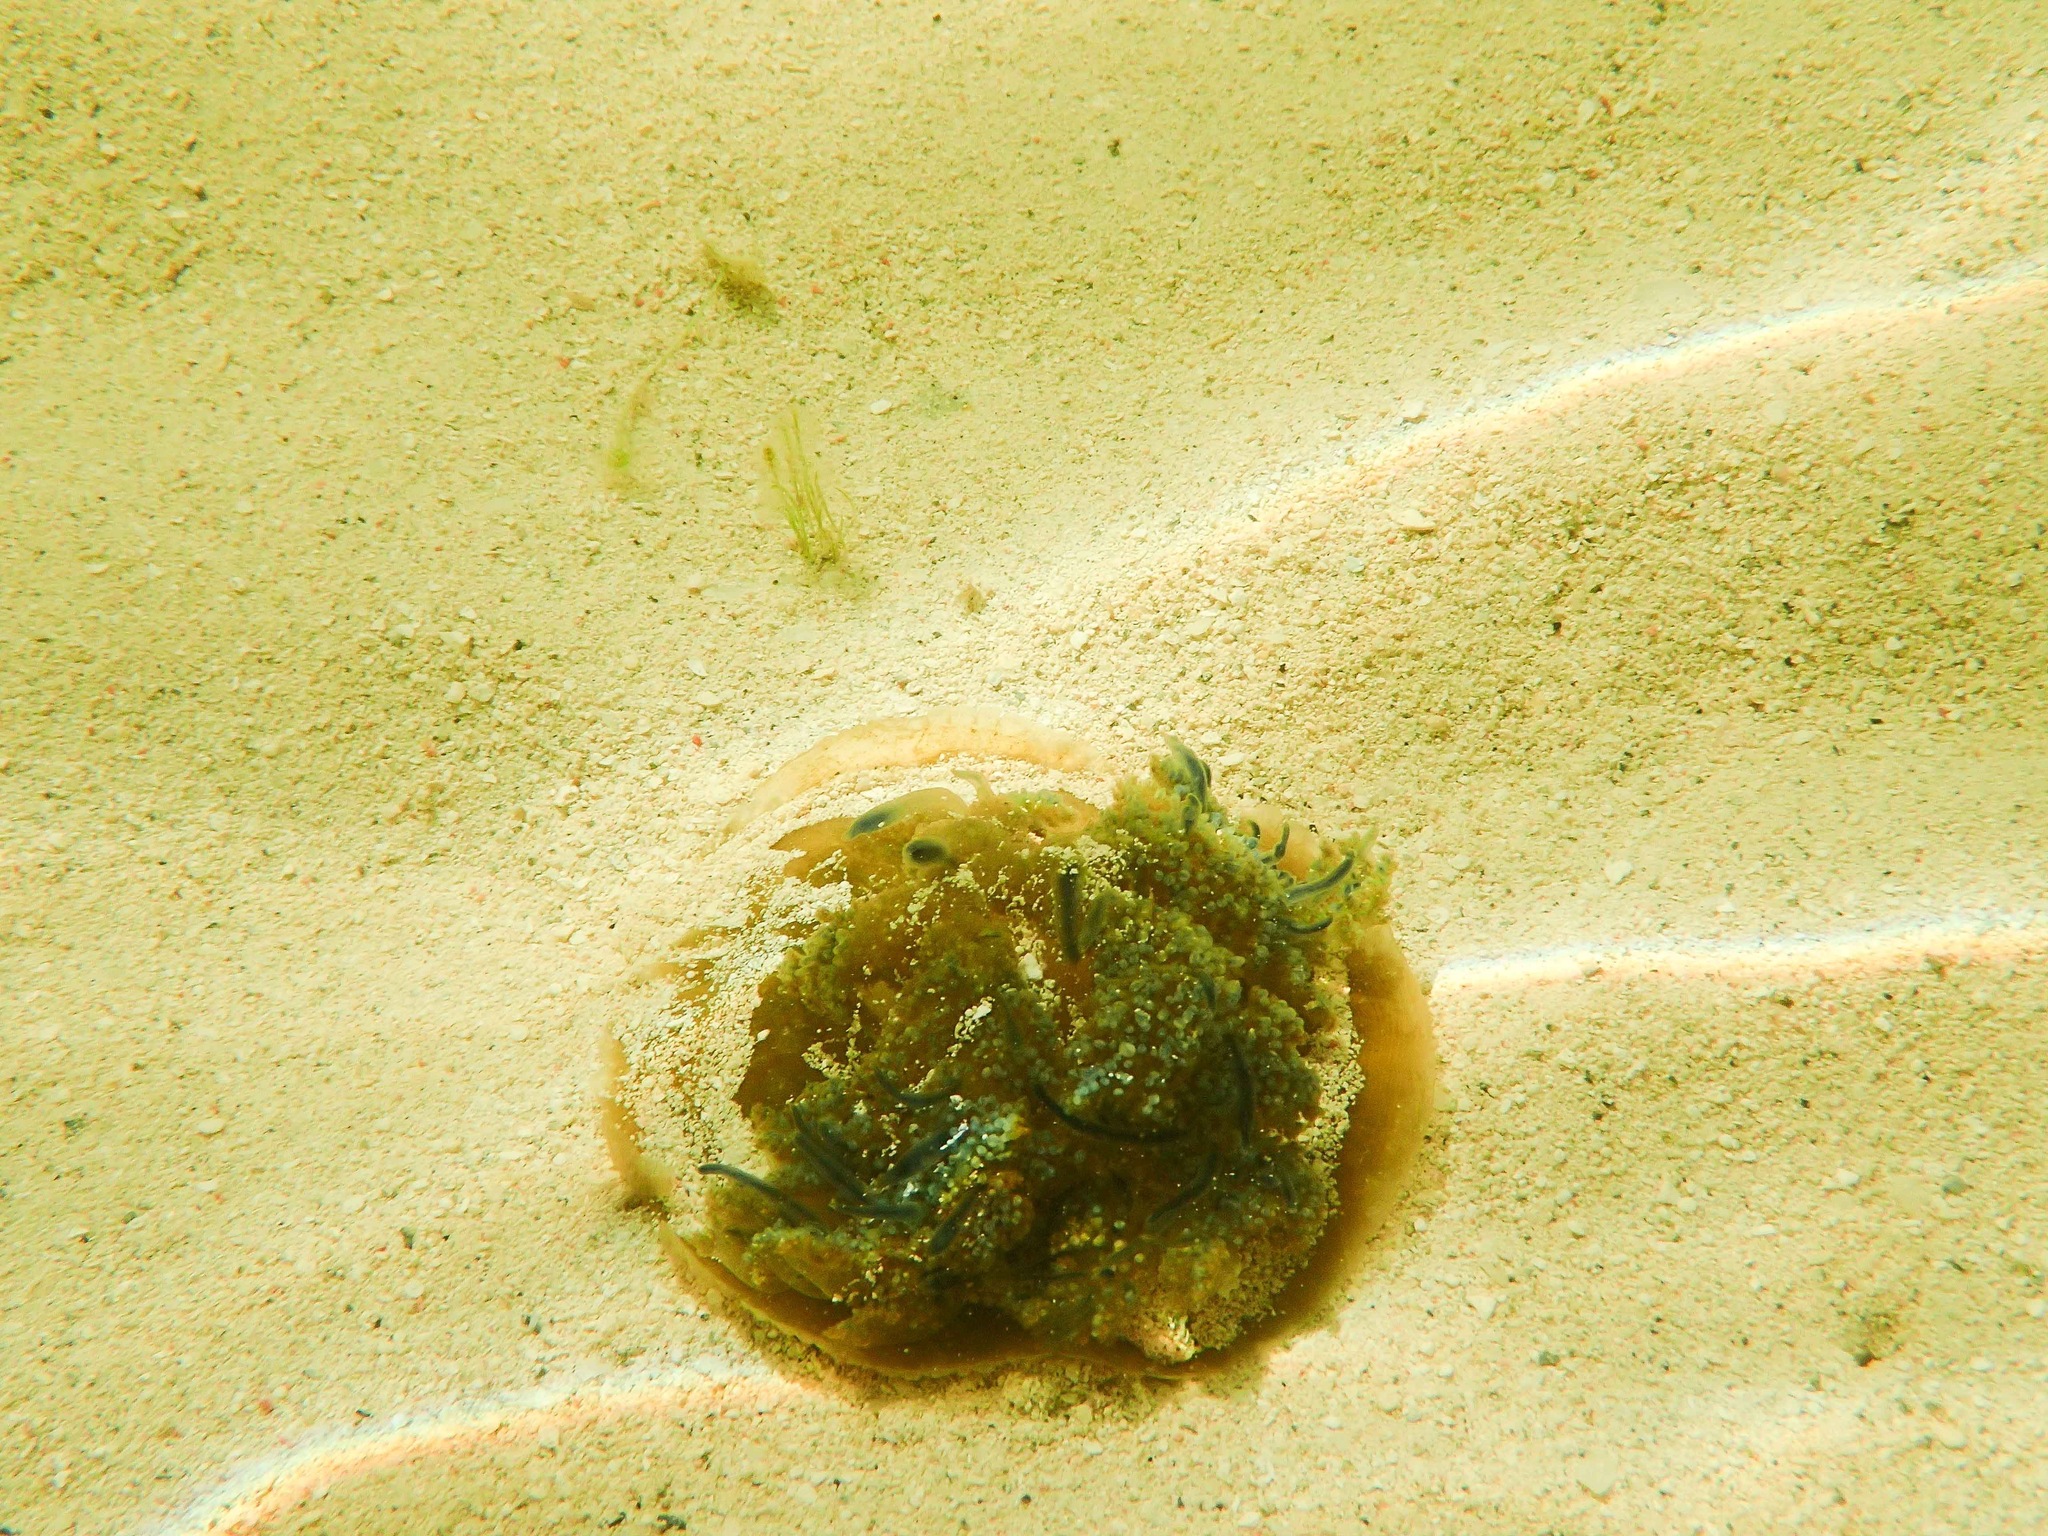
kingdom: Animalia
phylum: Cnidaria
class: Scyphozoa
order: Rhizostomeae
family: Cassiopeidae
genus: Cassiopea
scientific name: Cassiopea andromeda
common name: Upside-down jellyfish
